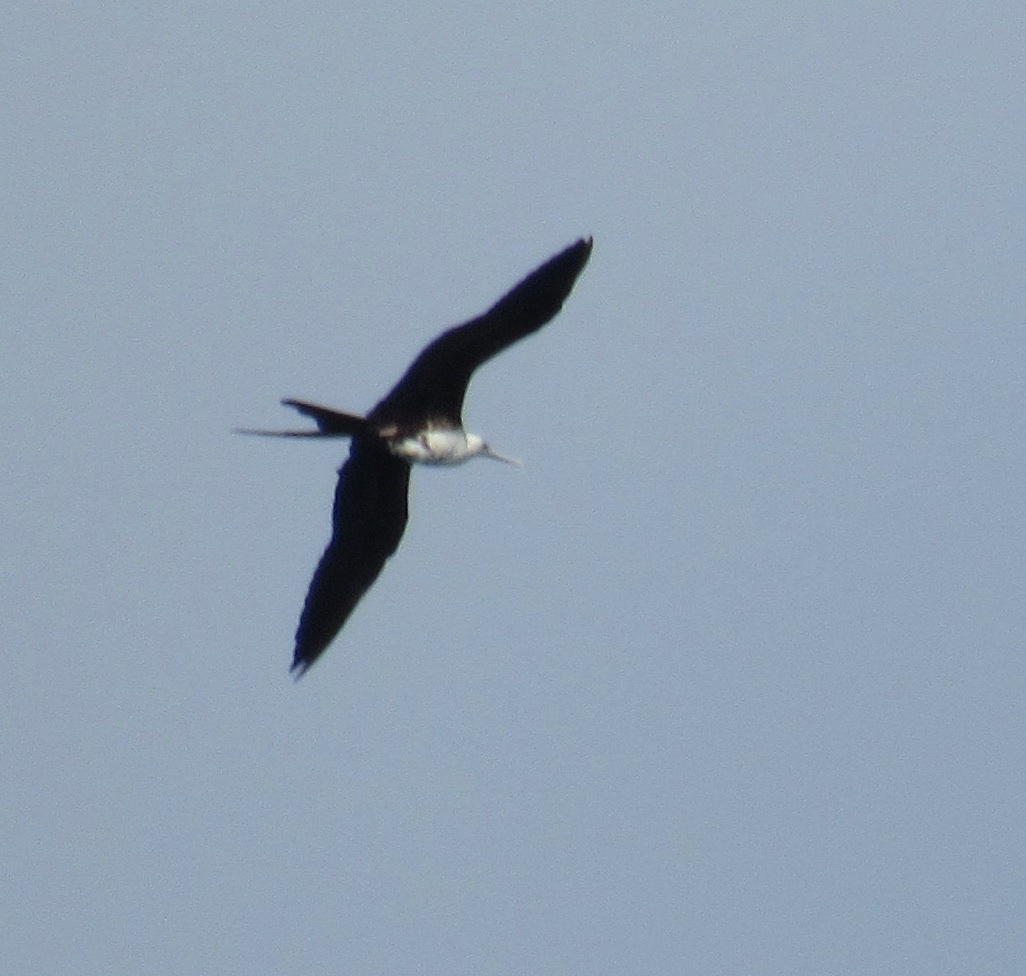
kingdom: Animalia
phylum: Chordata
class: Aves
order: Suliformes
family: Fregatidae
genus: Fregata
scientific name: Fregata magnificens
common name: Magnificent frigatebird
